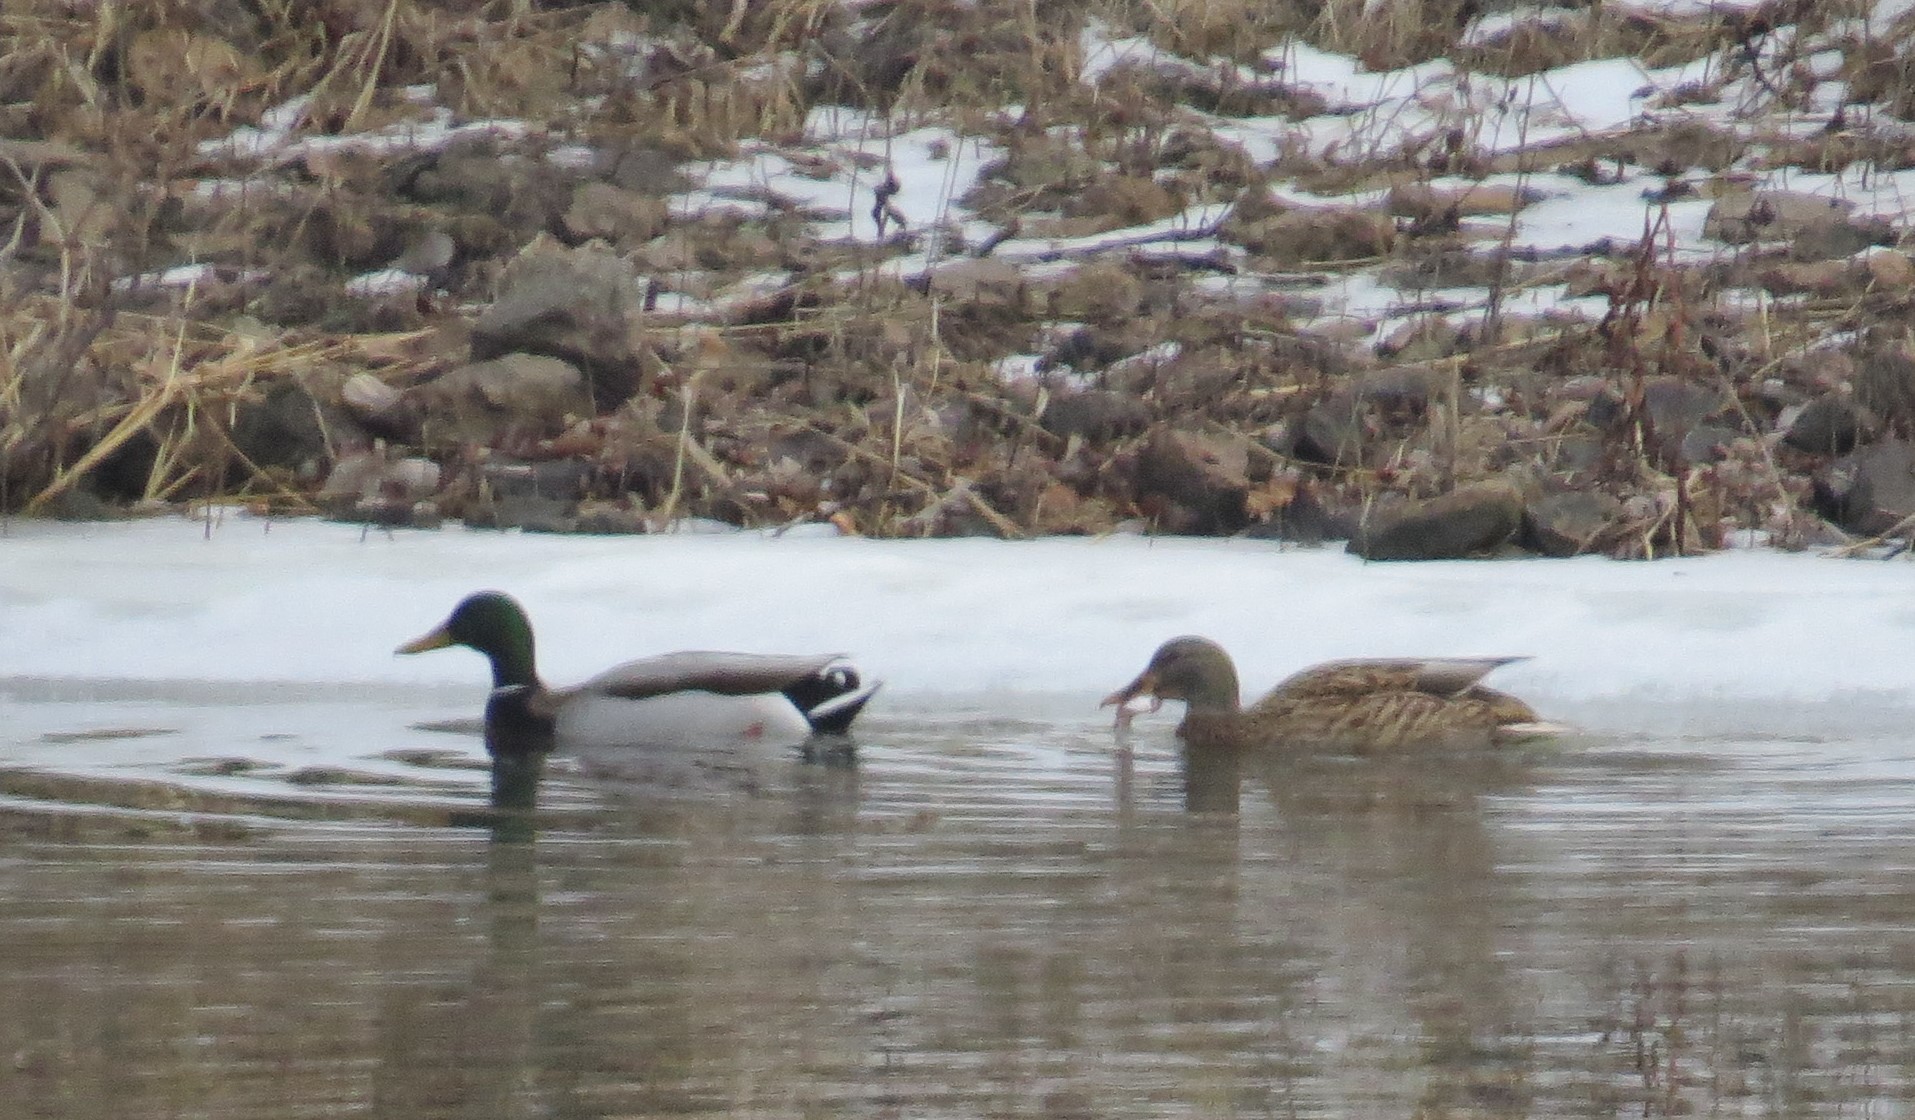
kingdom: Animalia
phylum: Chordata
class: Aves
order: Anseriformes
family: Anatidae
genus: Anas
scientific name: Anas platyrhynchos
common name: Mallard
